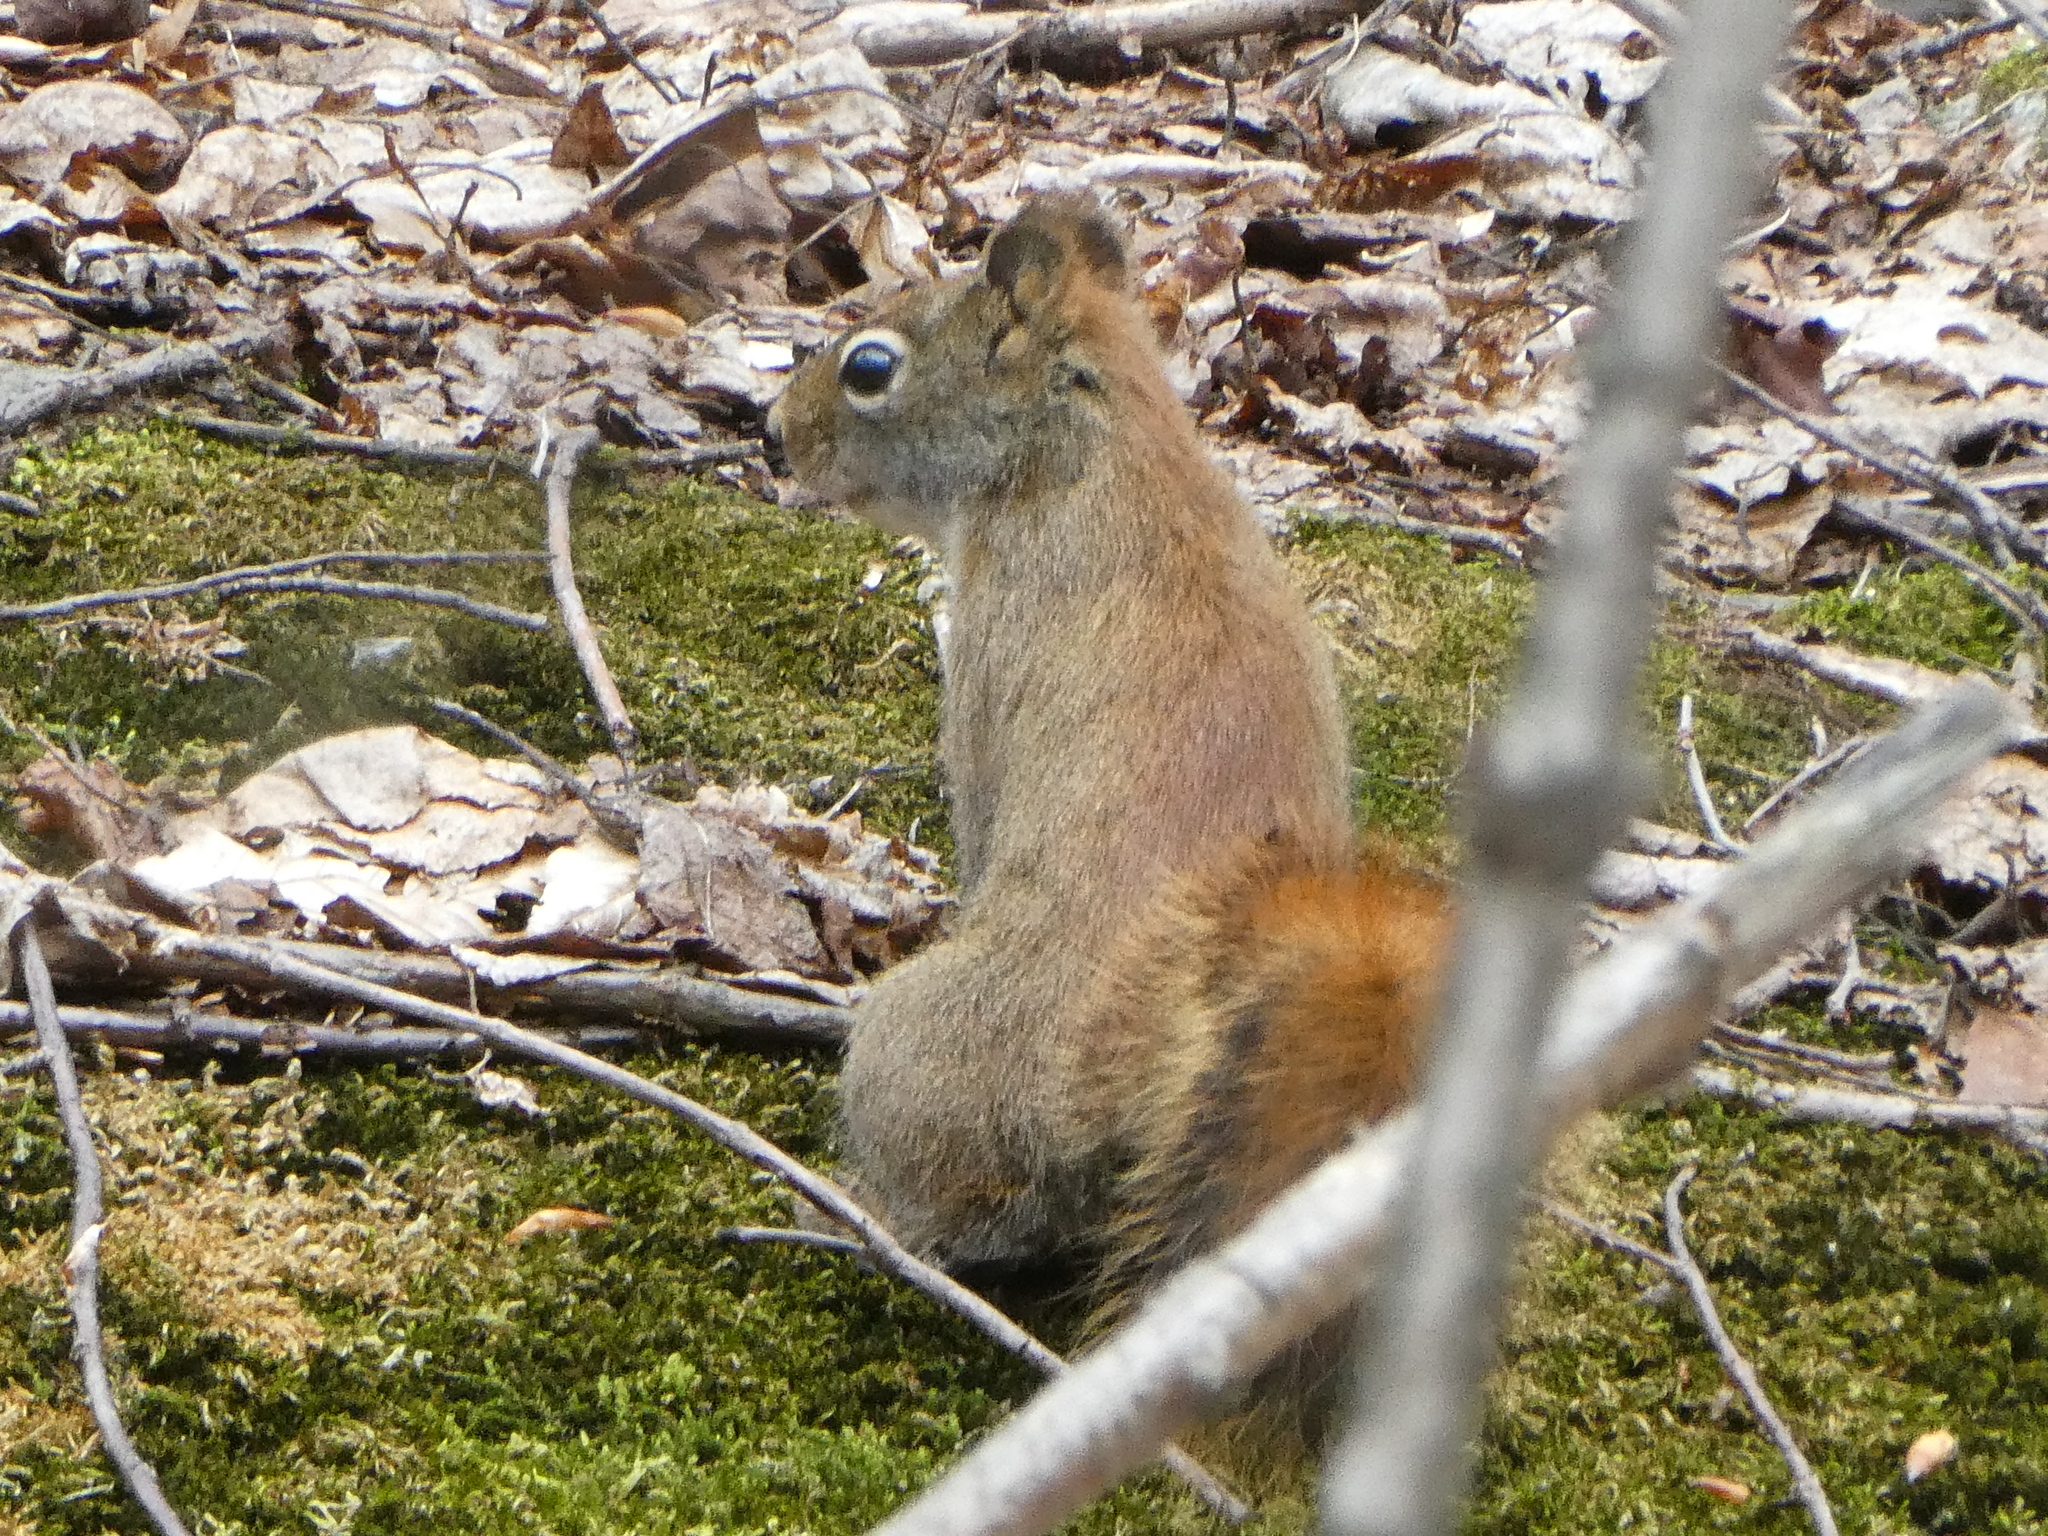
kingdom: Animalia
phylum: Chordata
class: Mammalia
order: Rodentia
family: Sciuridae
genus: Tamiasciurus
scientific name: Tamiasciurus hudsonicus
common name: Red squirrel
